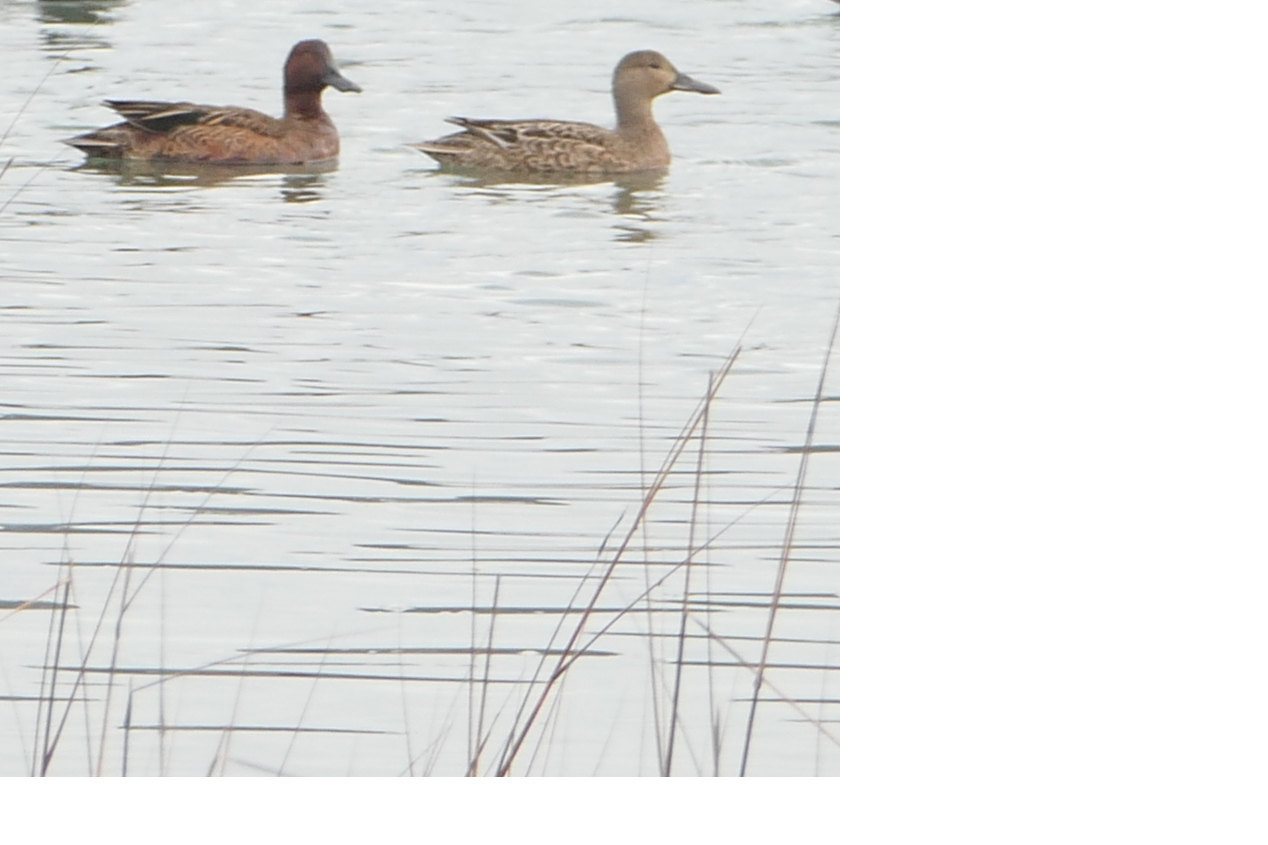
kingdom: Animalia
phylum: Chordata
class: Aves
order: Anseriformes
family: Anatidae
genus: Spatula
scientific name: Spatula cyanoptera
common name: Cinnamon teal
